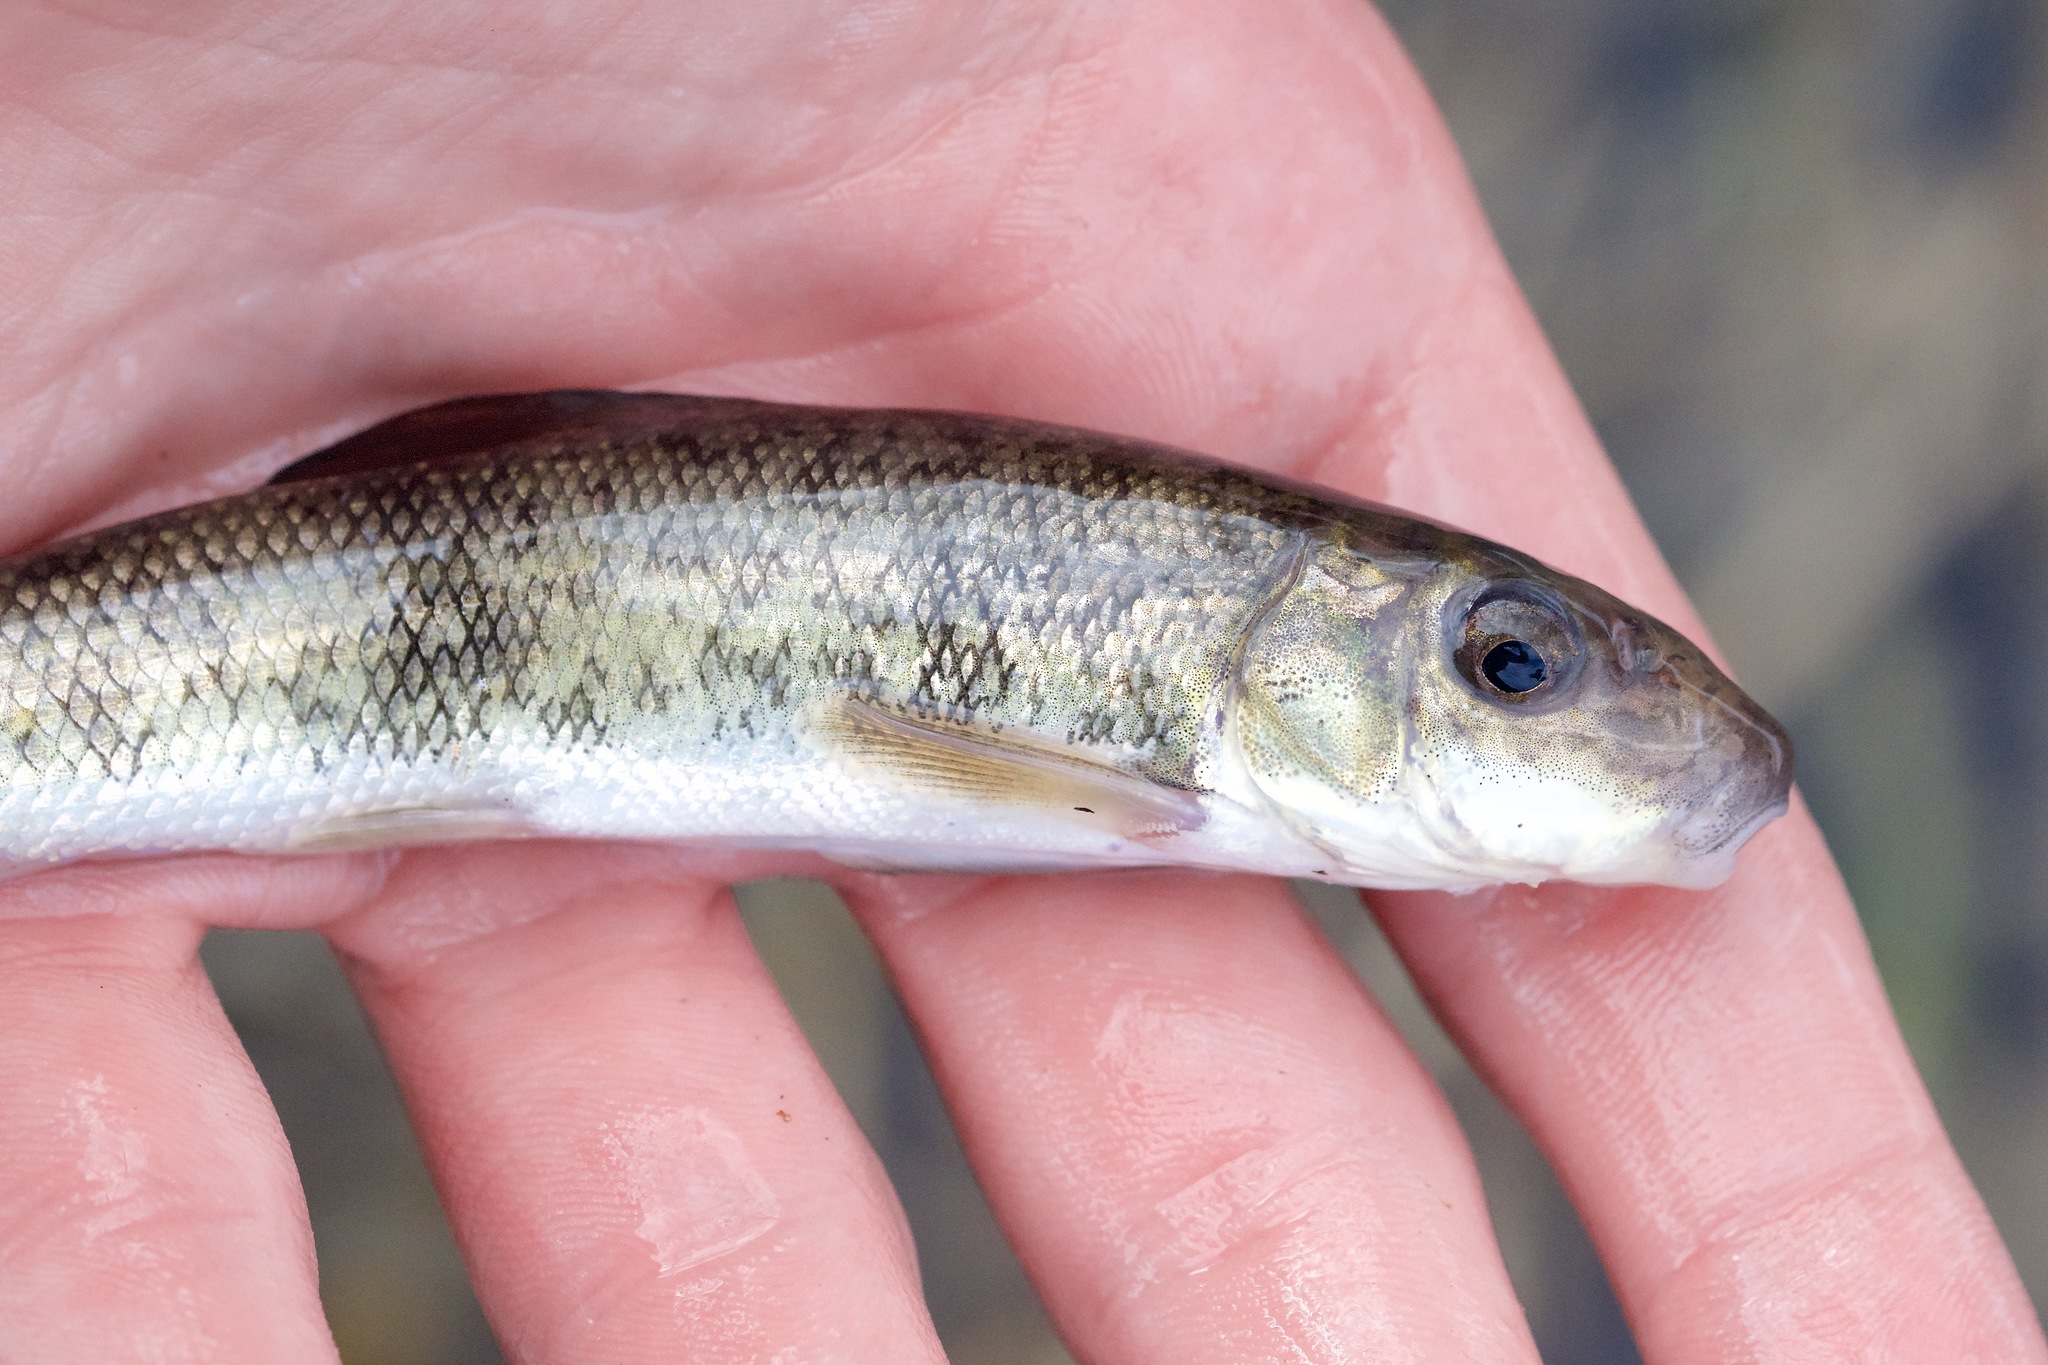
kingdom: Animalia
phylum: Chordata
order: Cypriniformes
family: Catostomidae
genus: Catostomus
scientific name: Catostomus commersonii
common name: White sucker
